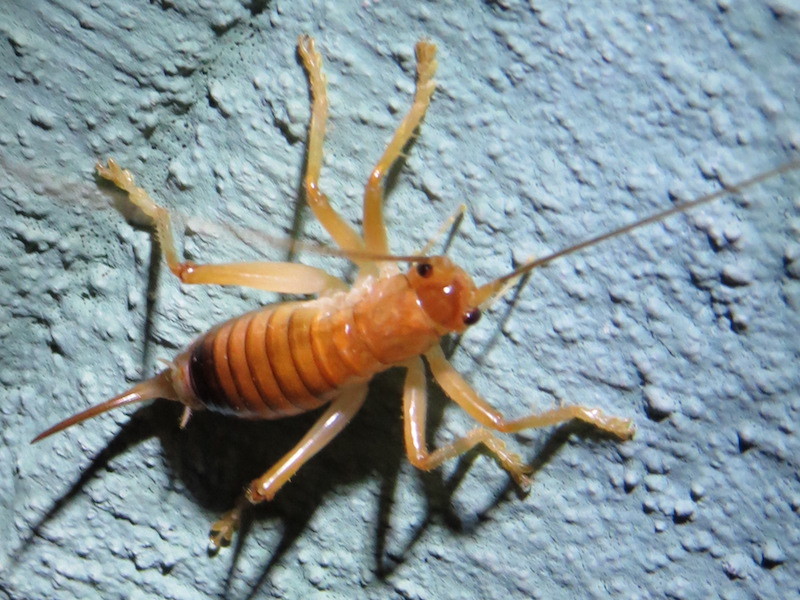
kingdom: Animalia
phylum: Arthropoda
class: Insecta
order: Orthoptera
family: Gryllacrididae
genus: Camptonotus
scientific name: Camptonotus carolinensis
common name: Carolina leaf-roller
